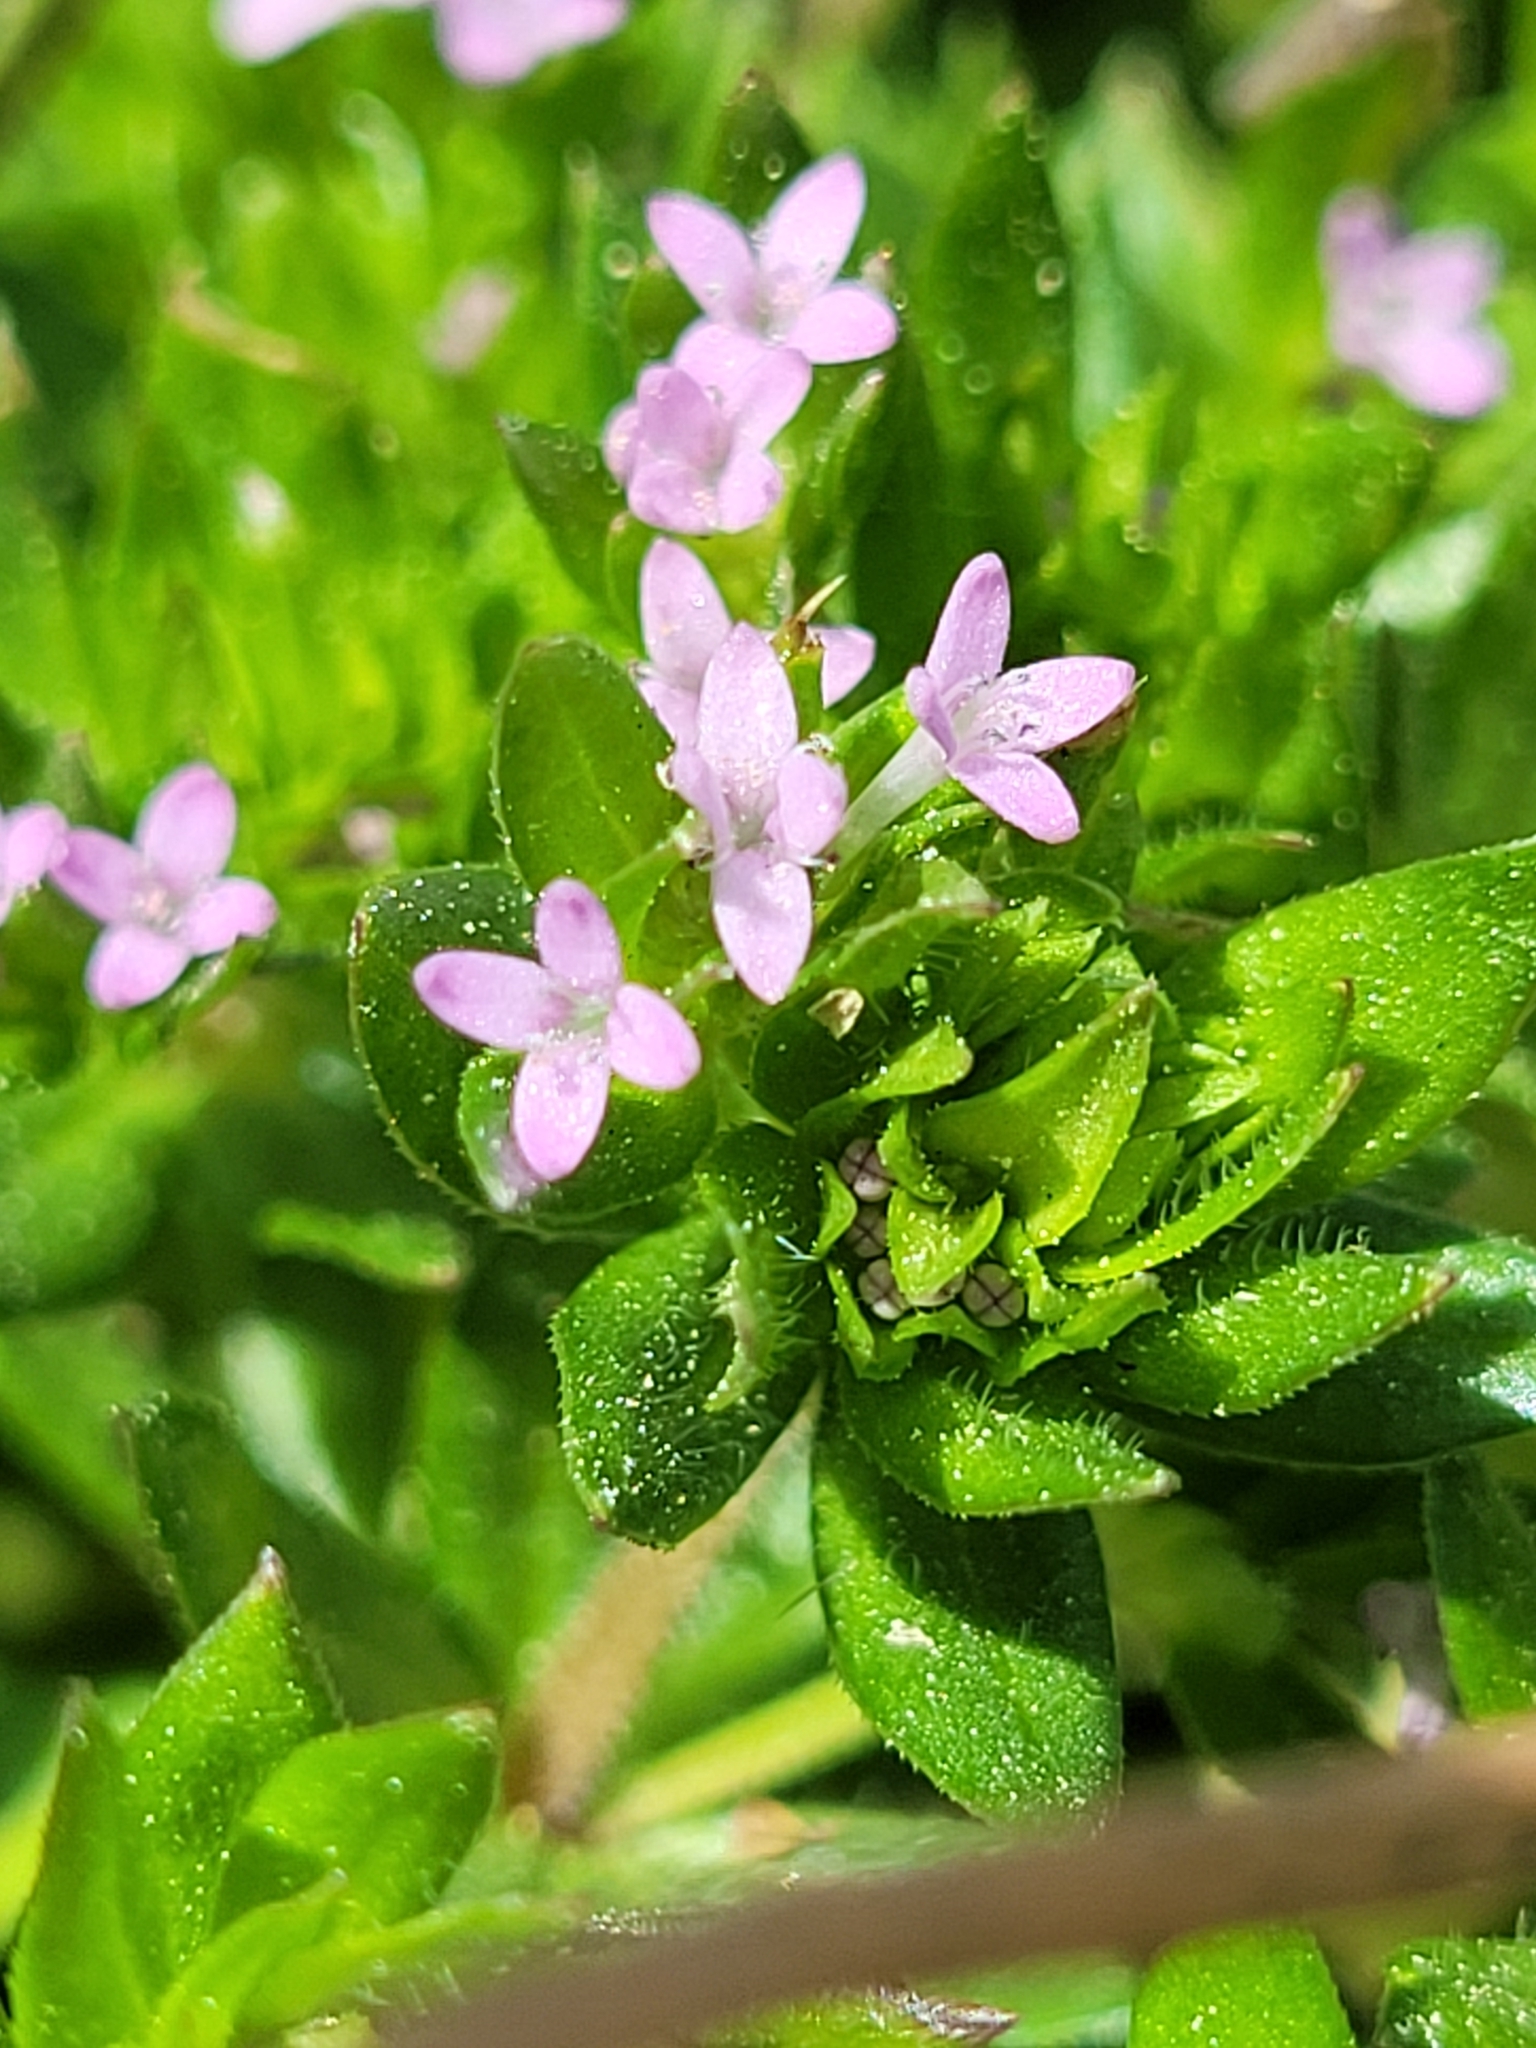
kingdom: Plantae
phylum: Tracheophyta
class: Magnoliopsida
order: Gentianales
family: Rubiaceae
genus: Sherardia
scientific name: Sherardia arvensis
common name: Field madder
